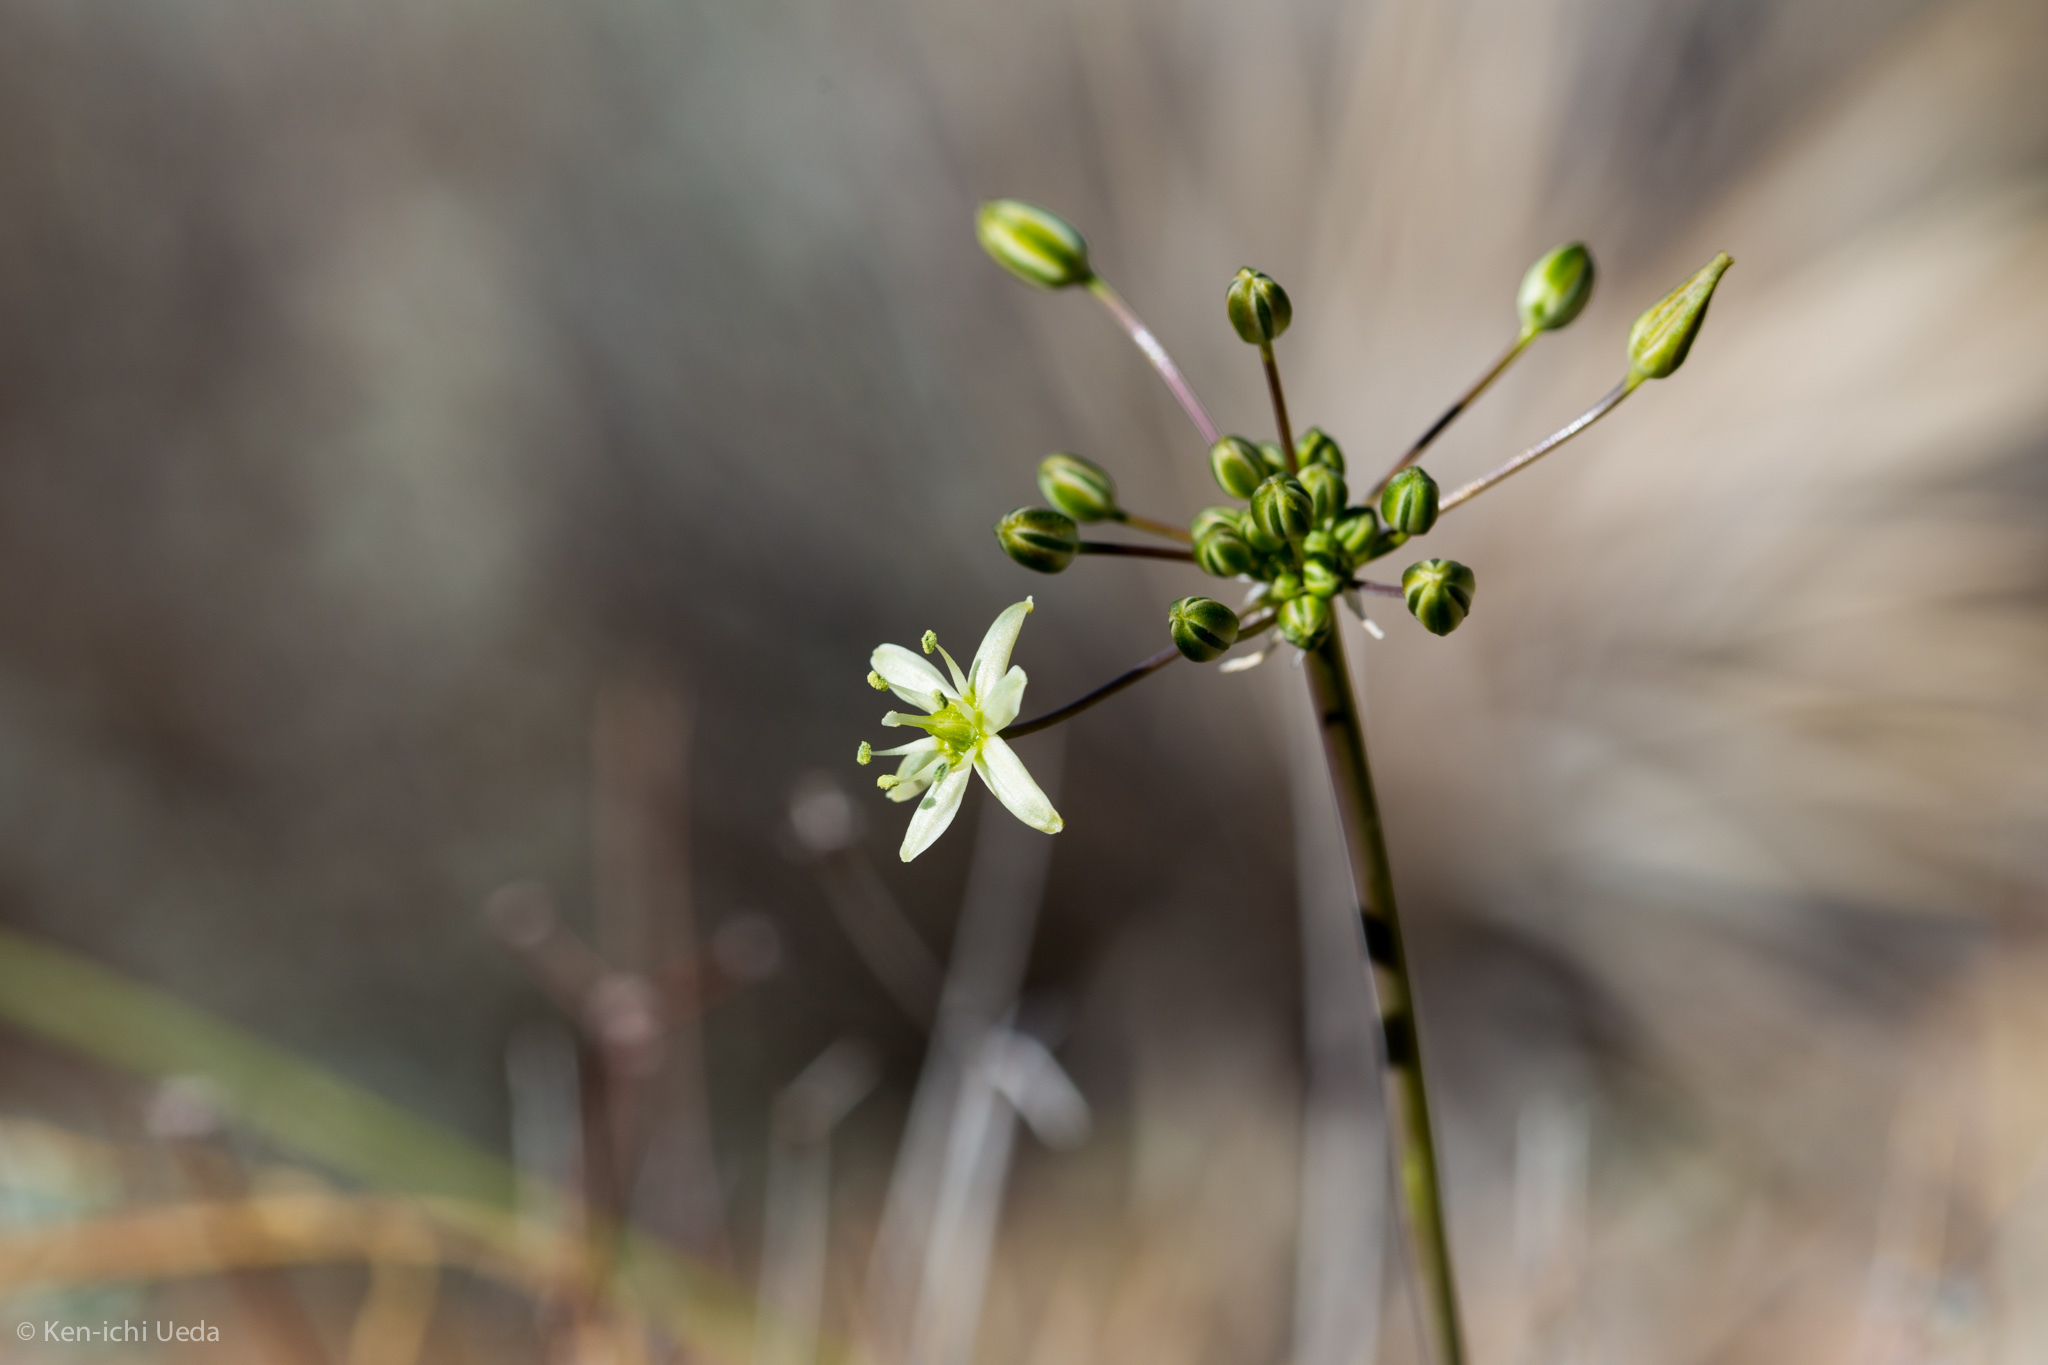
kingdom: Plantae
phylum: Tracheophyta
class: Liliopsida
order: Asparagales
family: Asparagaceae
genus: Muilla
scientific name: Muilla maritima
